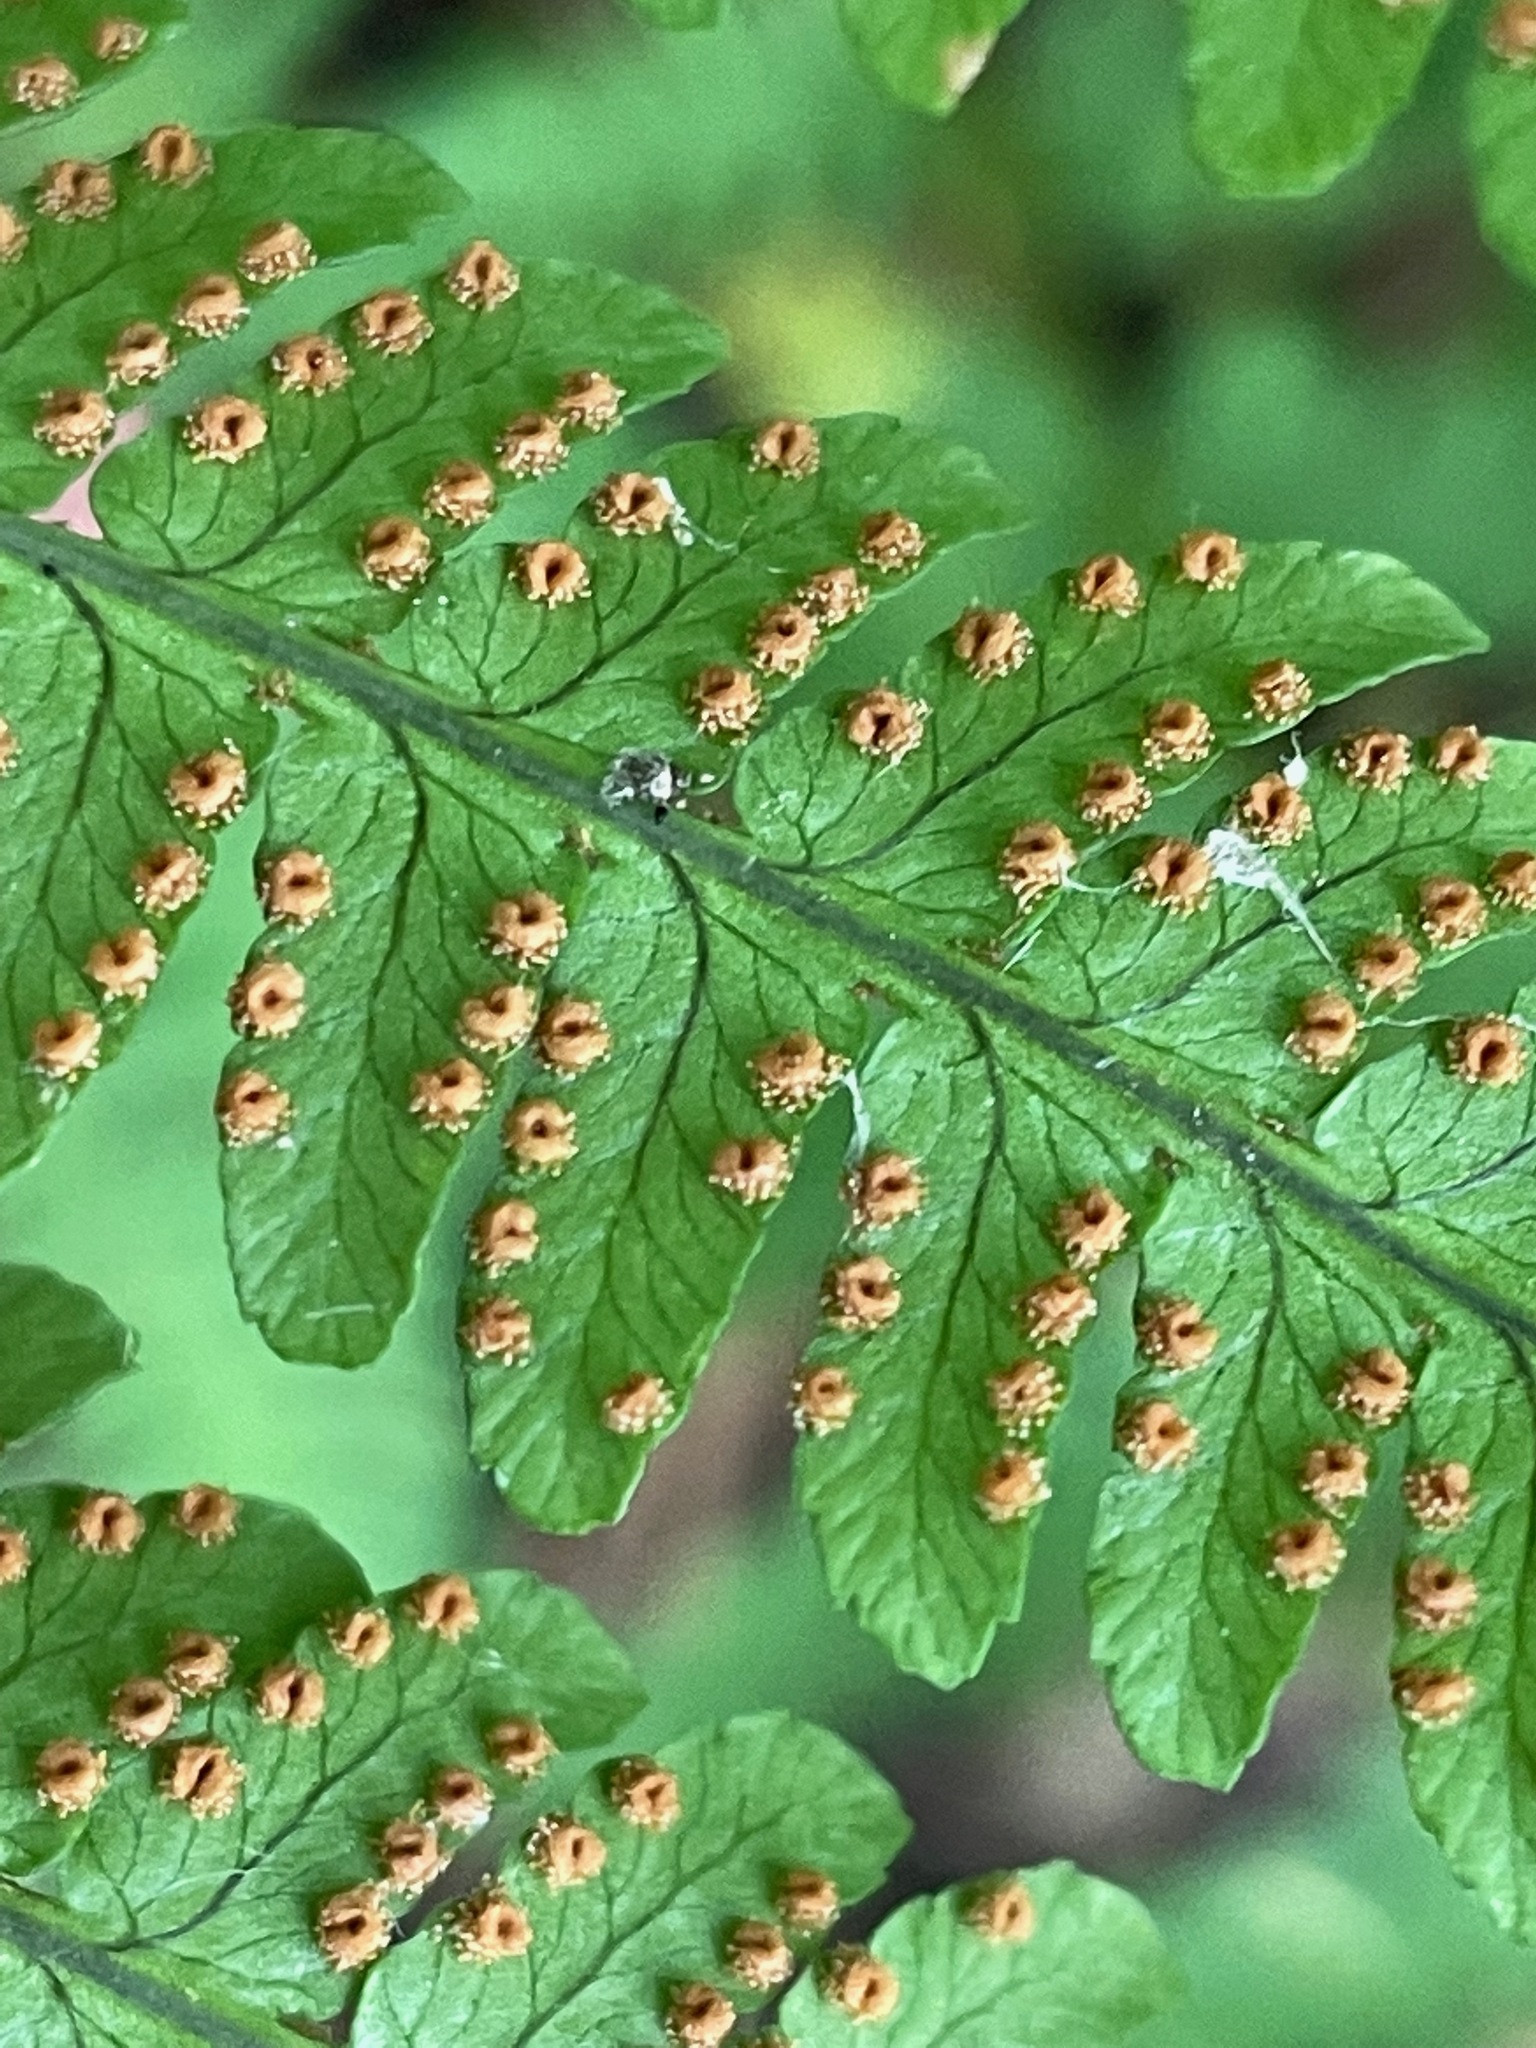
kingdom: Plantae
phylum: Tracheophyta
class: Polypodiopsida
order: Polypodiales
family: Dryopteridaceae
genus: Dryopteris
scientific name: Dryopteris marginalis
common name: Marginal wood fern
